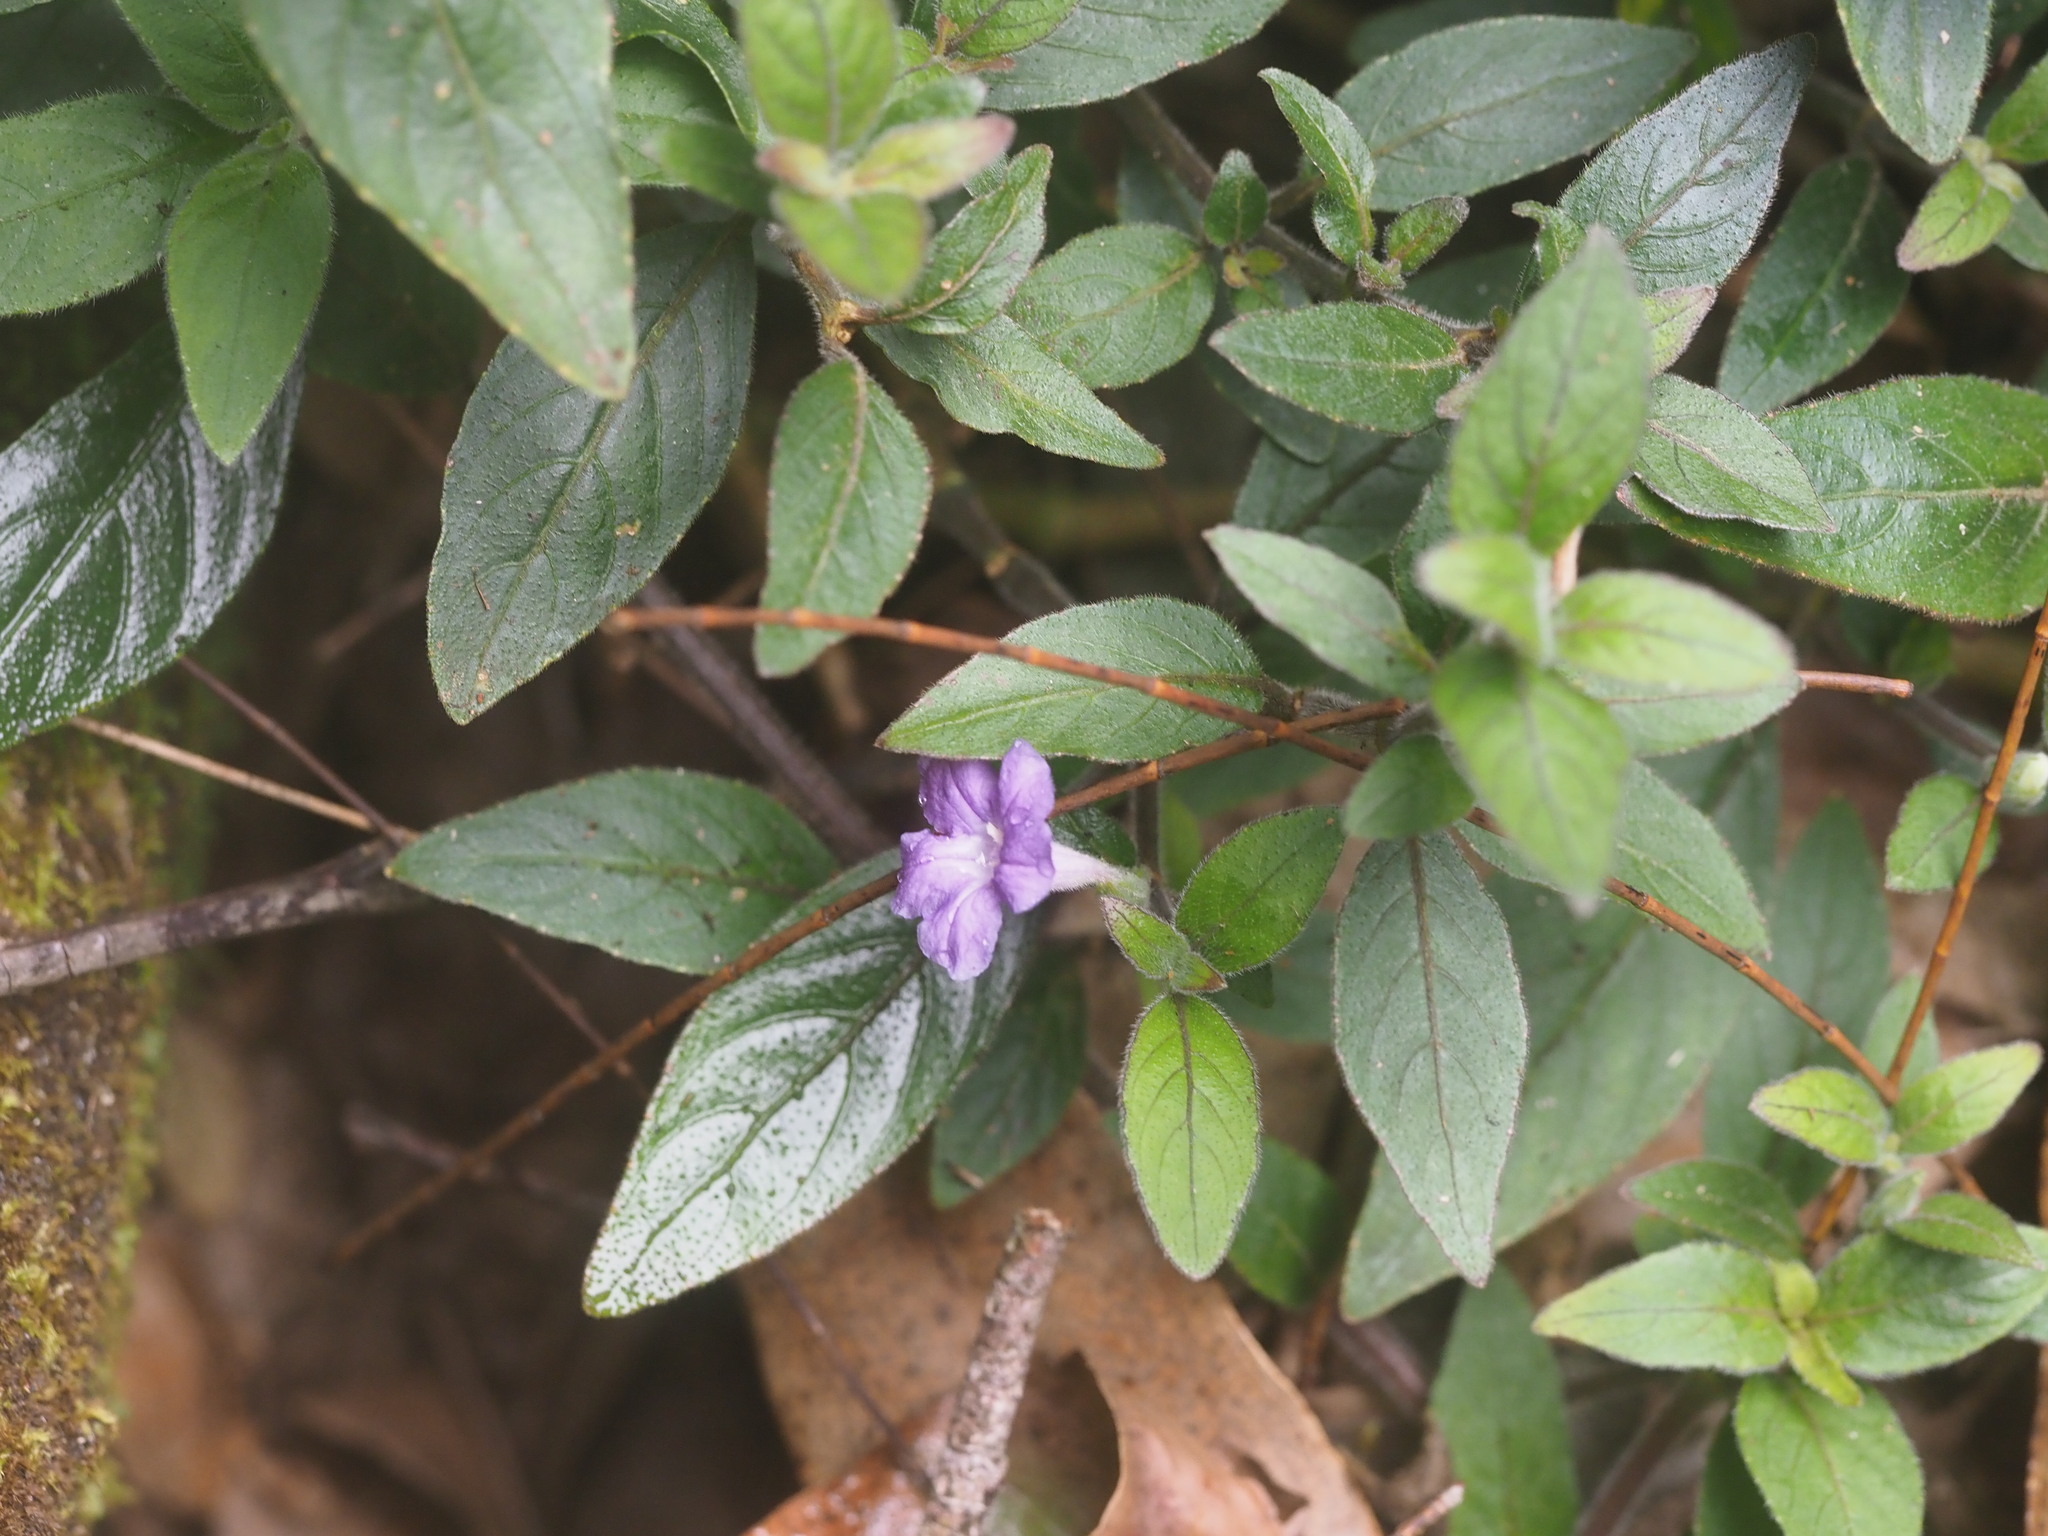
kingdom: Plantae
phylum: Tracheophyta
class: Magnoliopsida
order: Lamiales
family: Acanthaceae
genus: Ruellia
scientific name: Ruellia squarrosa
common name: Water bluebell
